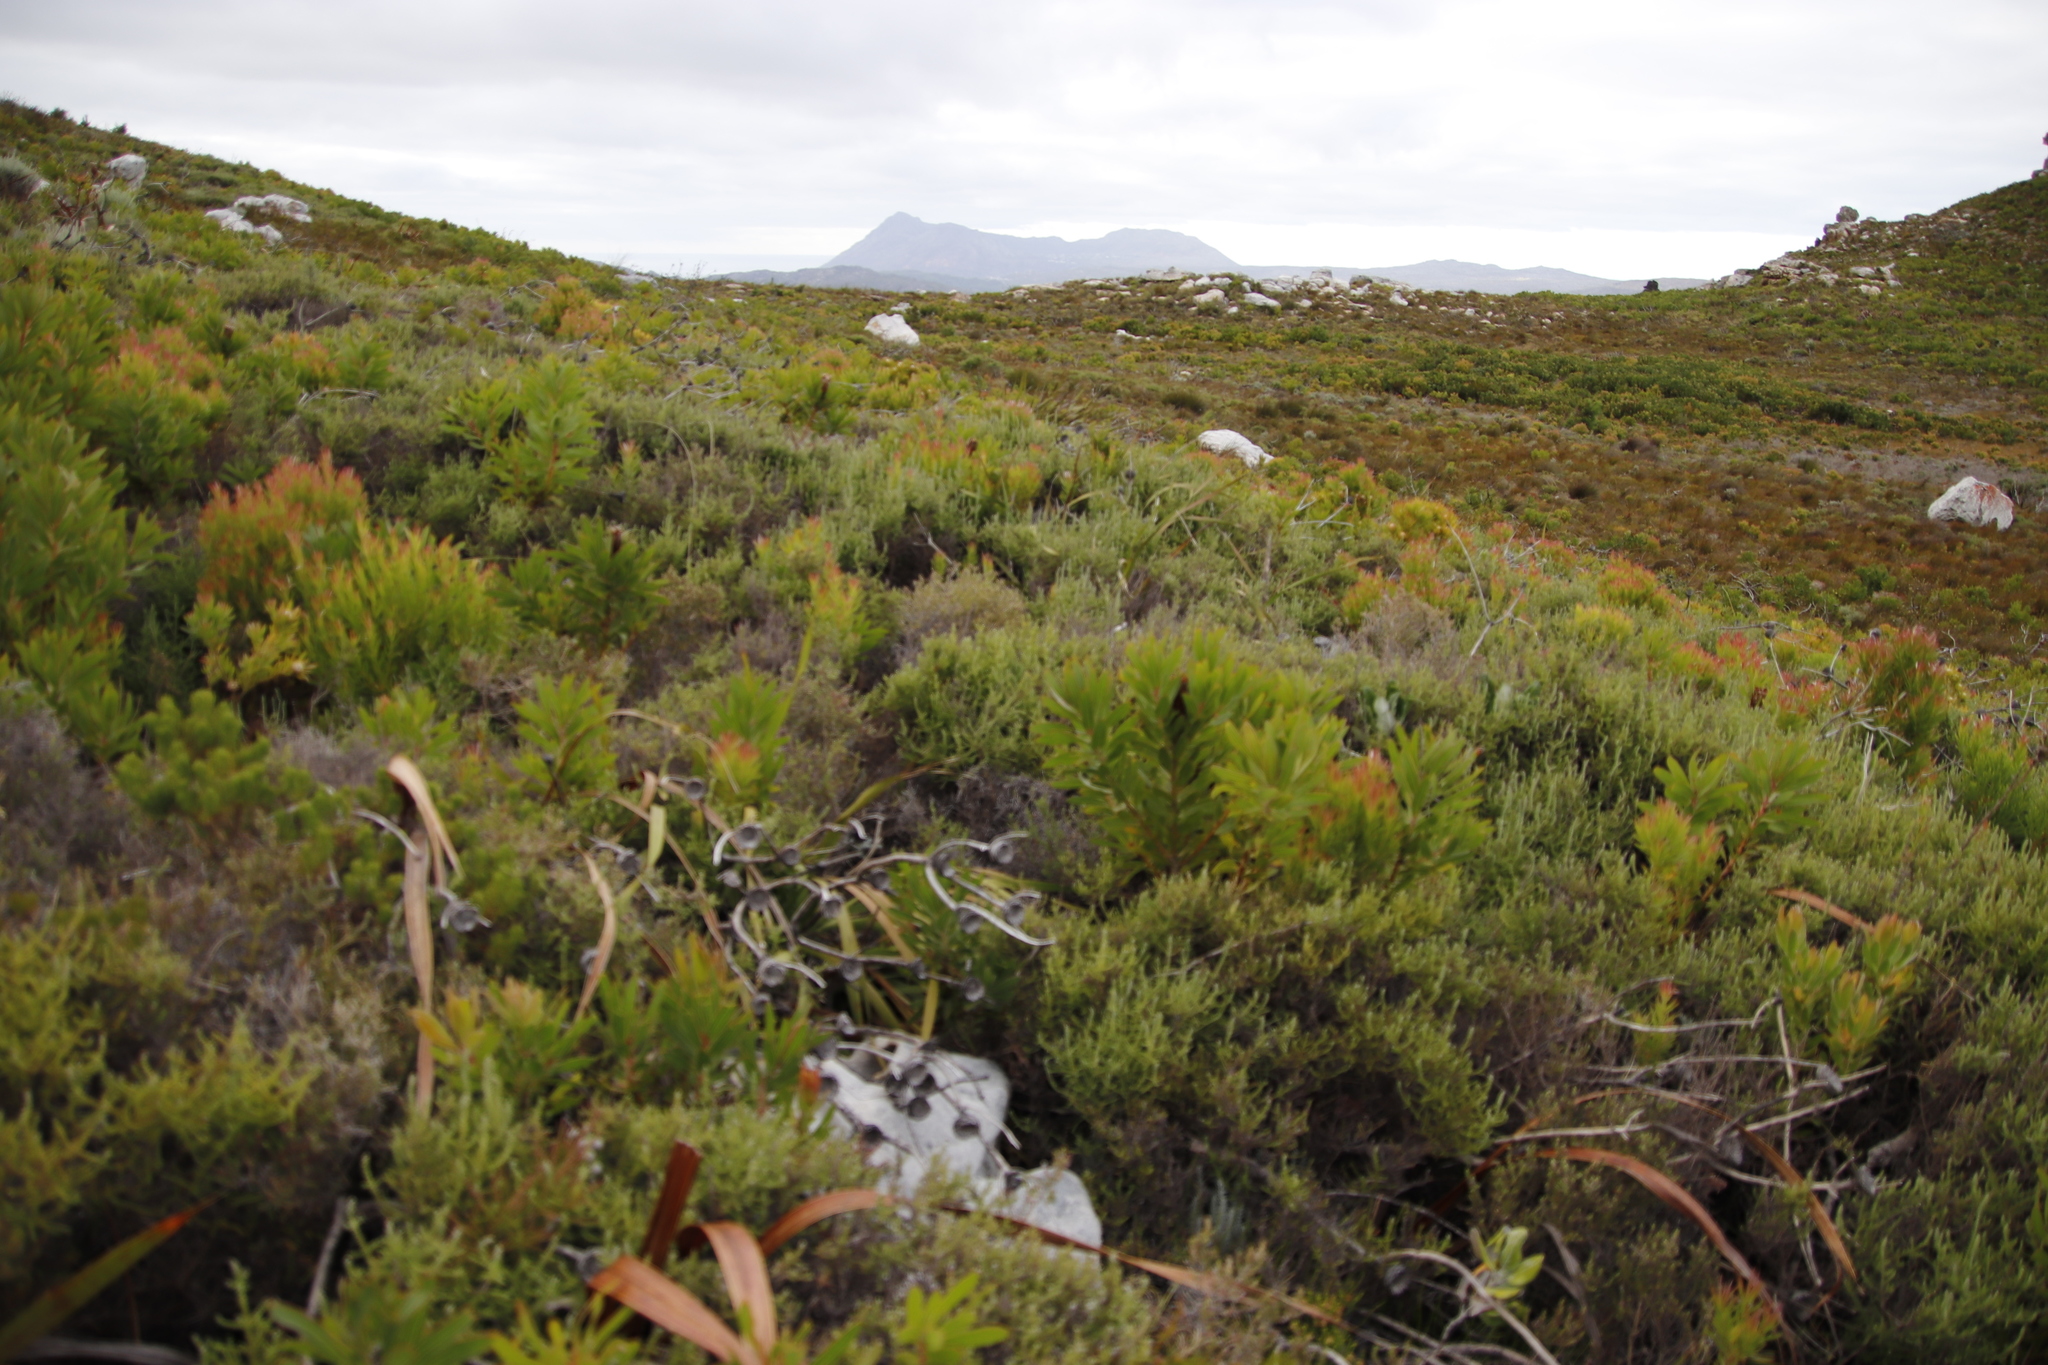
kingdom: Plantae
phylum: Tracheophyta
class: Magnoliopsida
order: Asterales
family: Asteraceae
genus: Seriphium
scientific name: Seriphium cinereum
